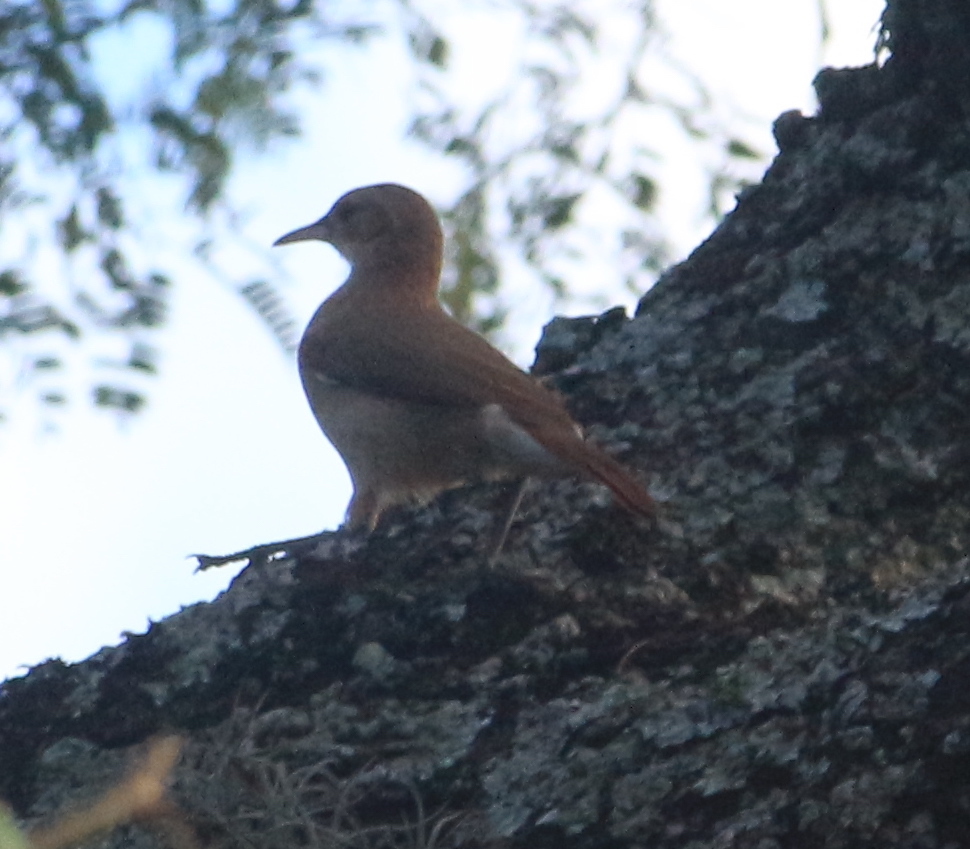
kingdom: Animalia
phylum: Chordata
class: Aves
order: Passeriformes
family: Furnariidae
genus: Furnarius
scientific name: Furnarius rufus
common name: Rufous hornero
